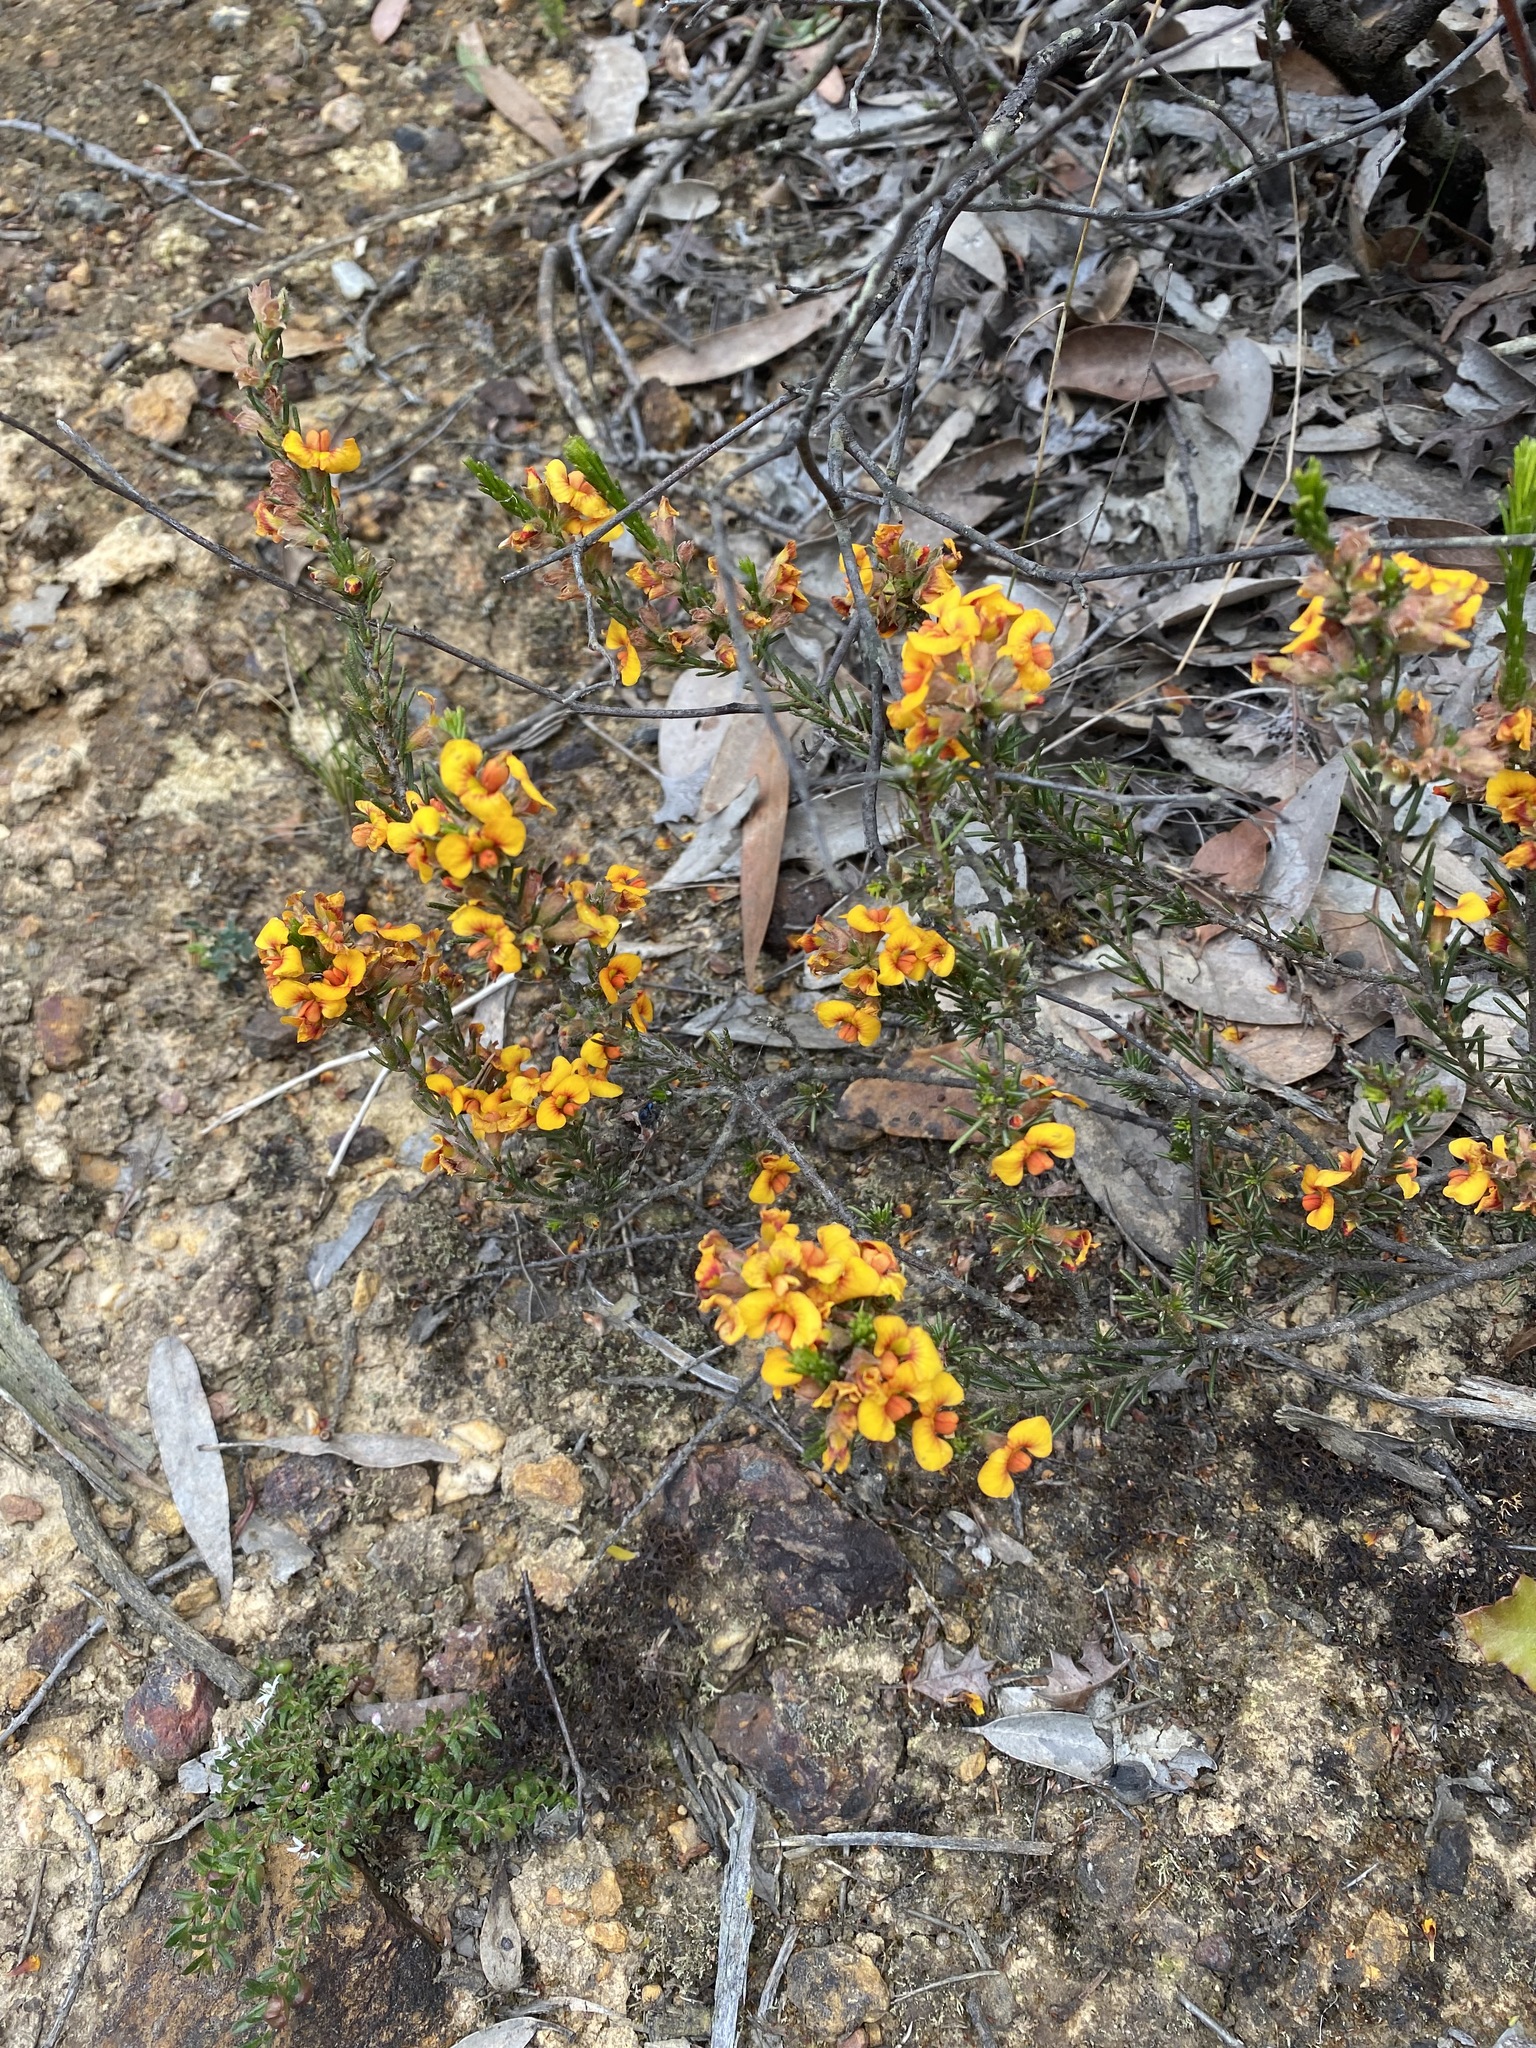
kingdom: Plantae
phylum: Tracheophyta
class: Magnoliopsida
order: Fabales
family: Fabaceae
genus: Dillwynia
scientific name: Dillwynia sericea
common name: Showy parrot-pea
